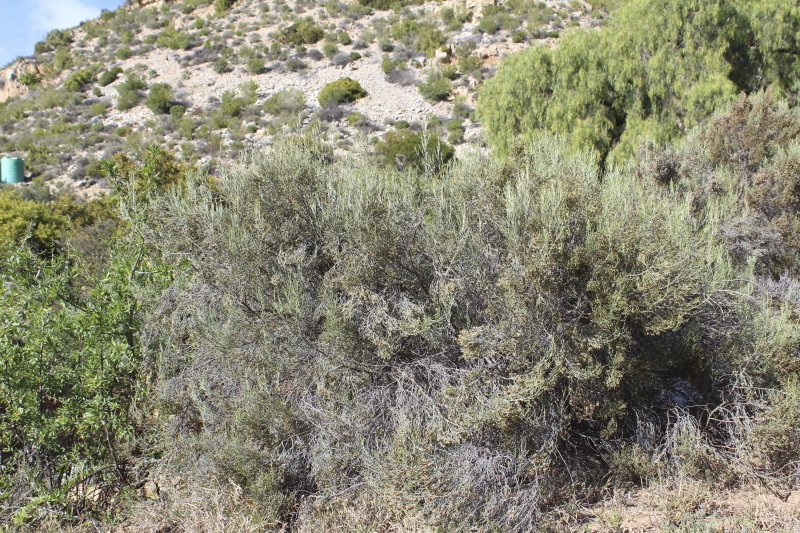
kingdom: Plantae
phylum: Tracheophyta
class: Magnoliopsida
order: Asterales
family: Asteraceae
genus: Dicerothamnus
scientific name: Dicerothamnus rhinocerotis
